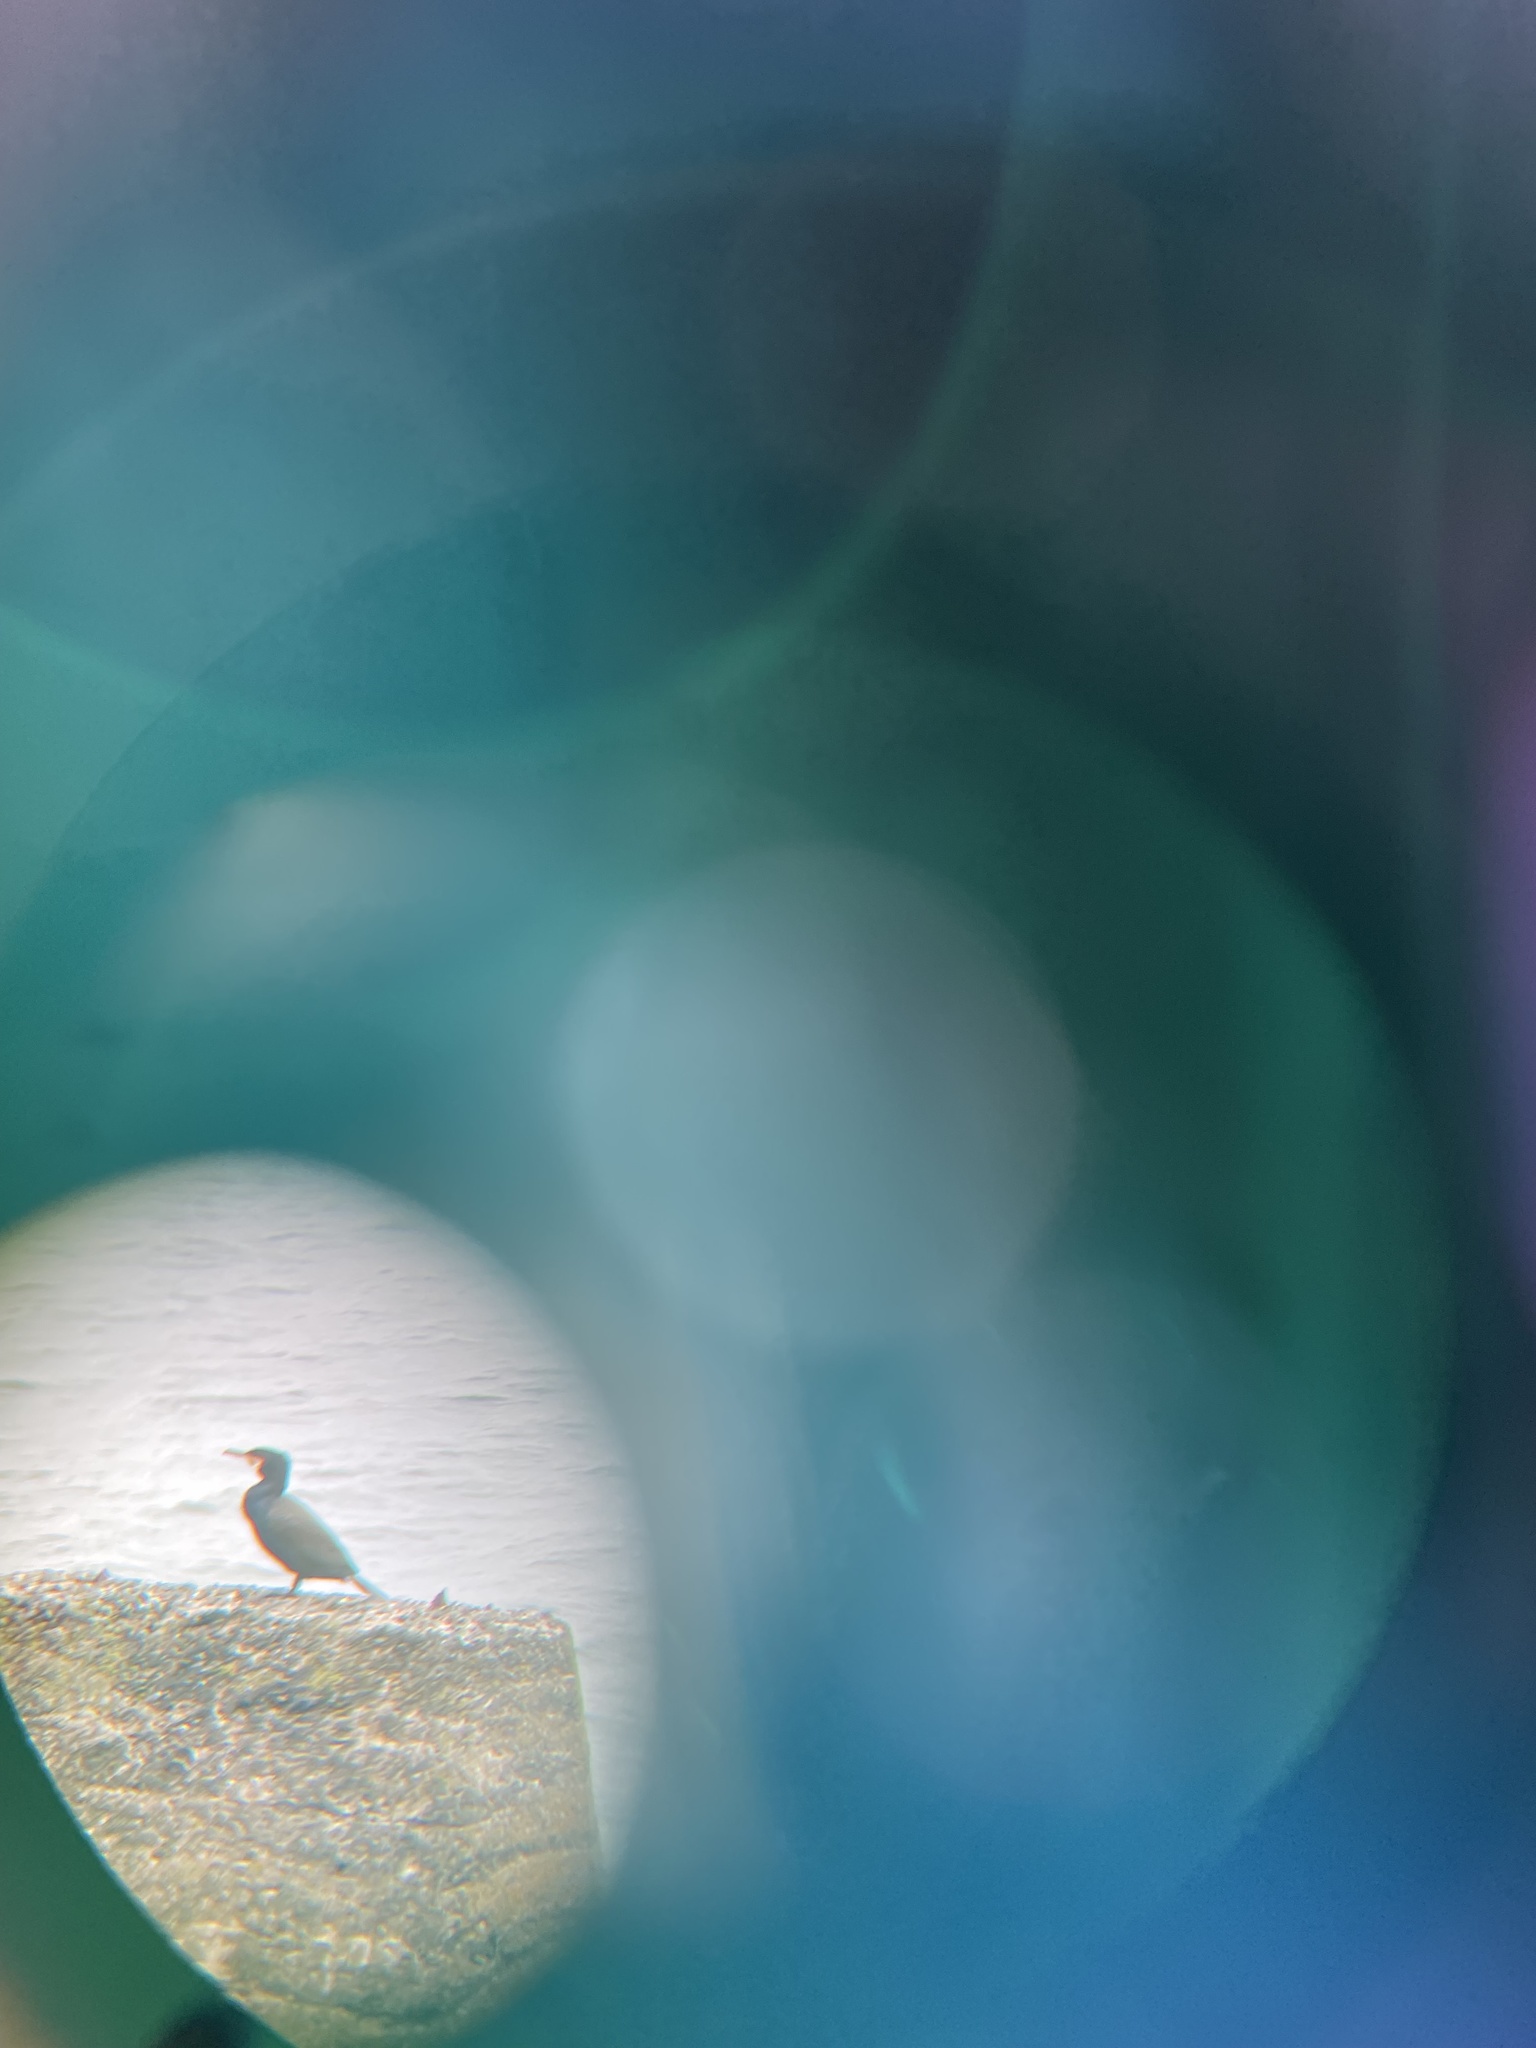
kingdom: Animalia
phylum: Chordata
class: Aves
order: Suliformes
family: Phalacrocoracidae
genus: Phalacrocorax
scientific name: Phalacrocorax carbo
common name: Great cormorant
